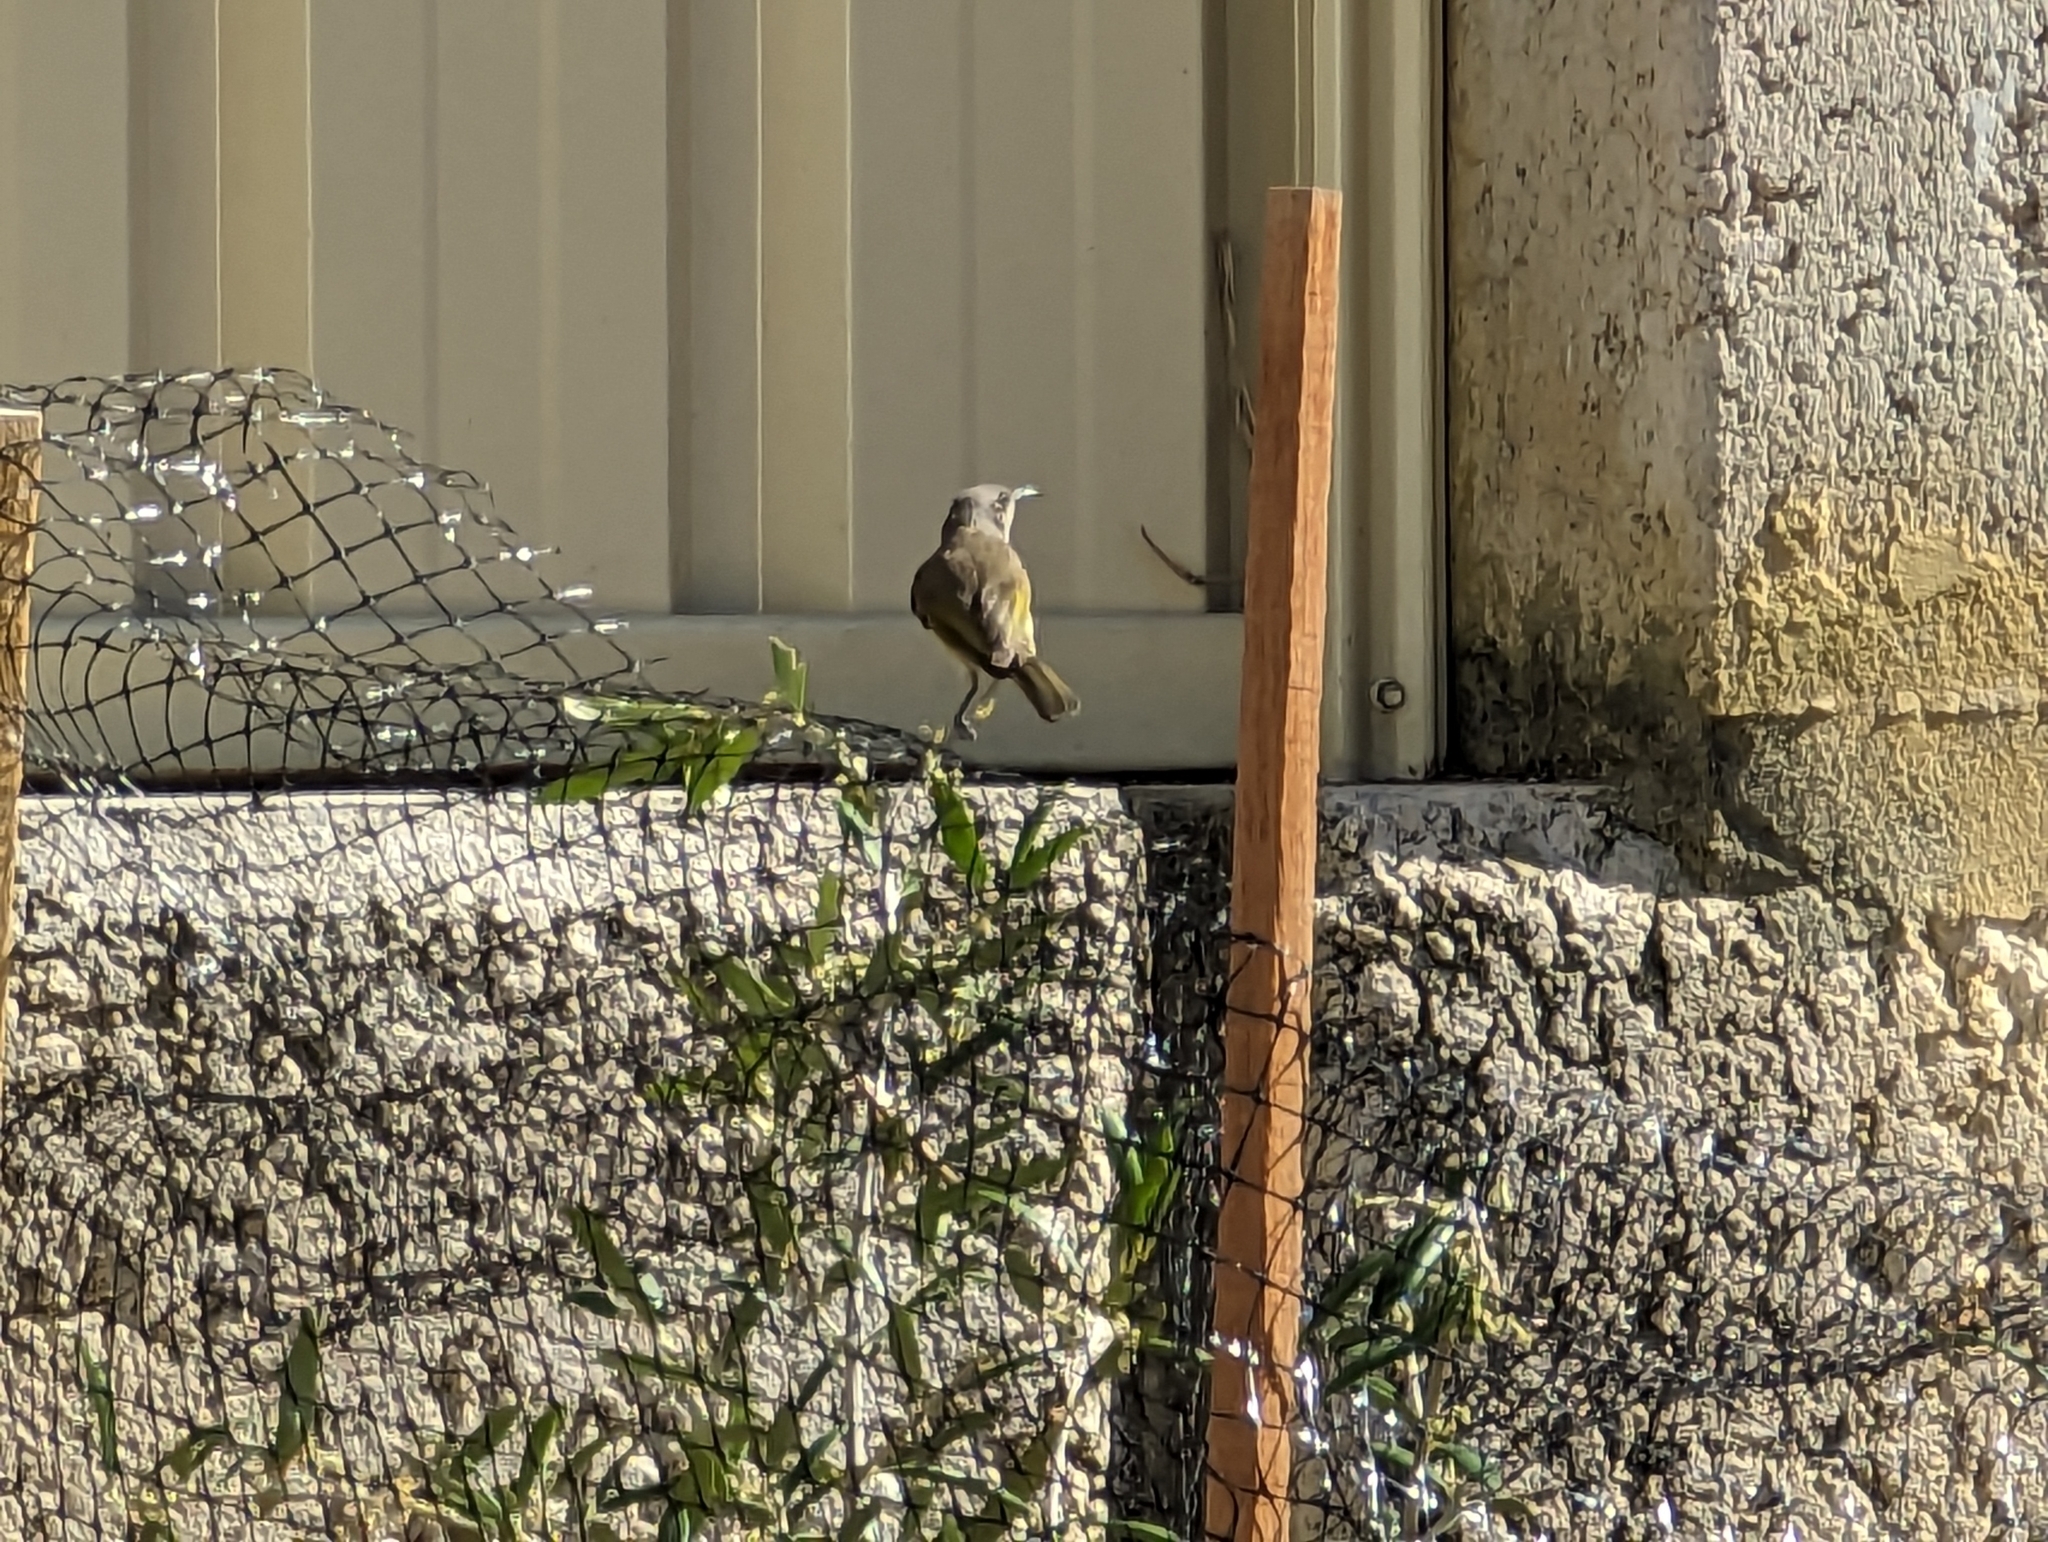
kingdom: Animalia
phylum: Chordata
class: Aves
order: Passeriformes
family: Meliphagidae
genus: Lichmera
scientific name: Lichmera indistincta
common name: Brown honeyeater
